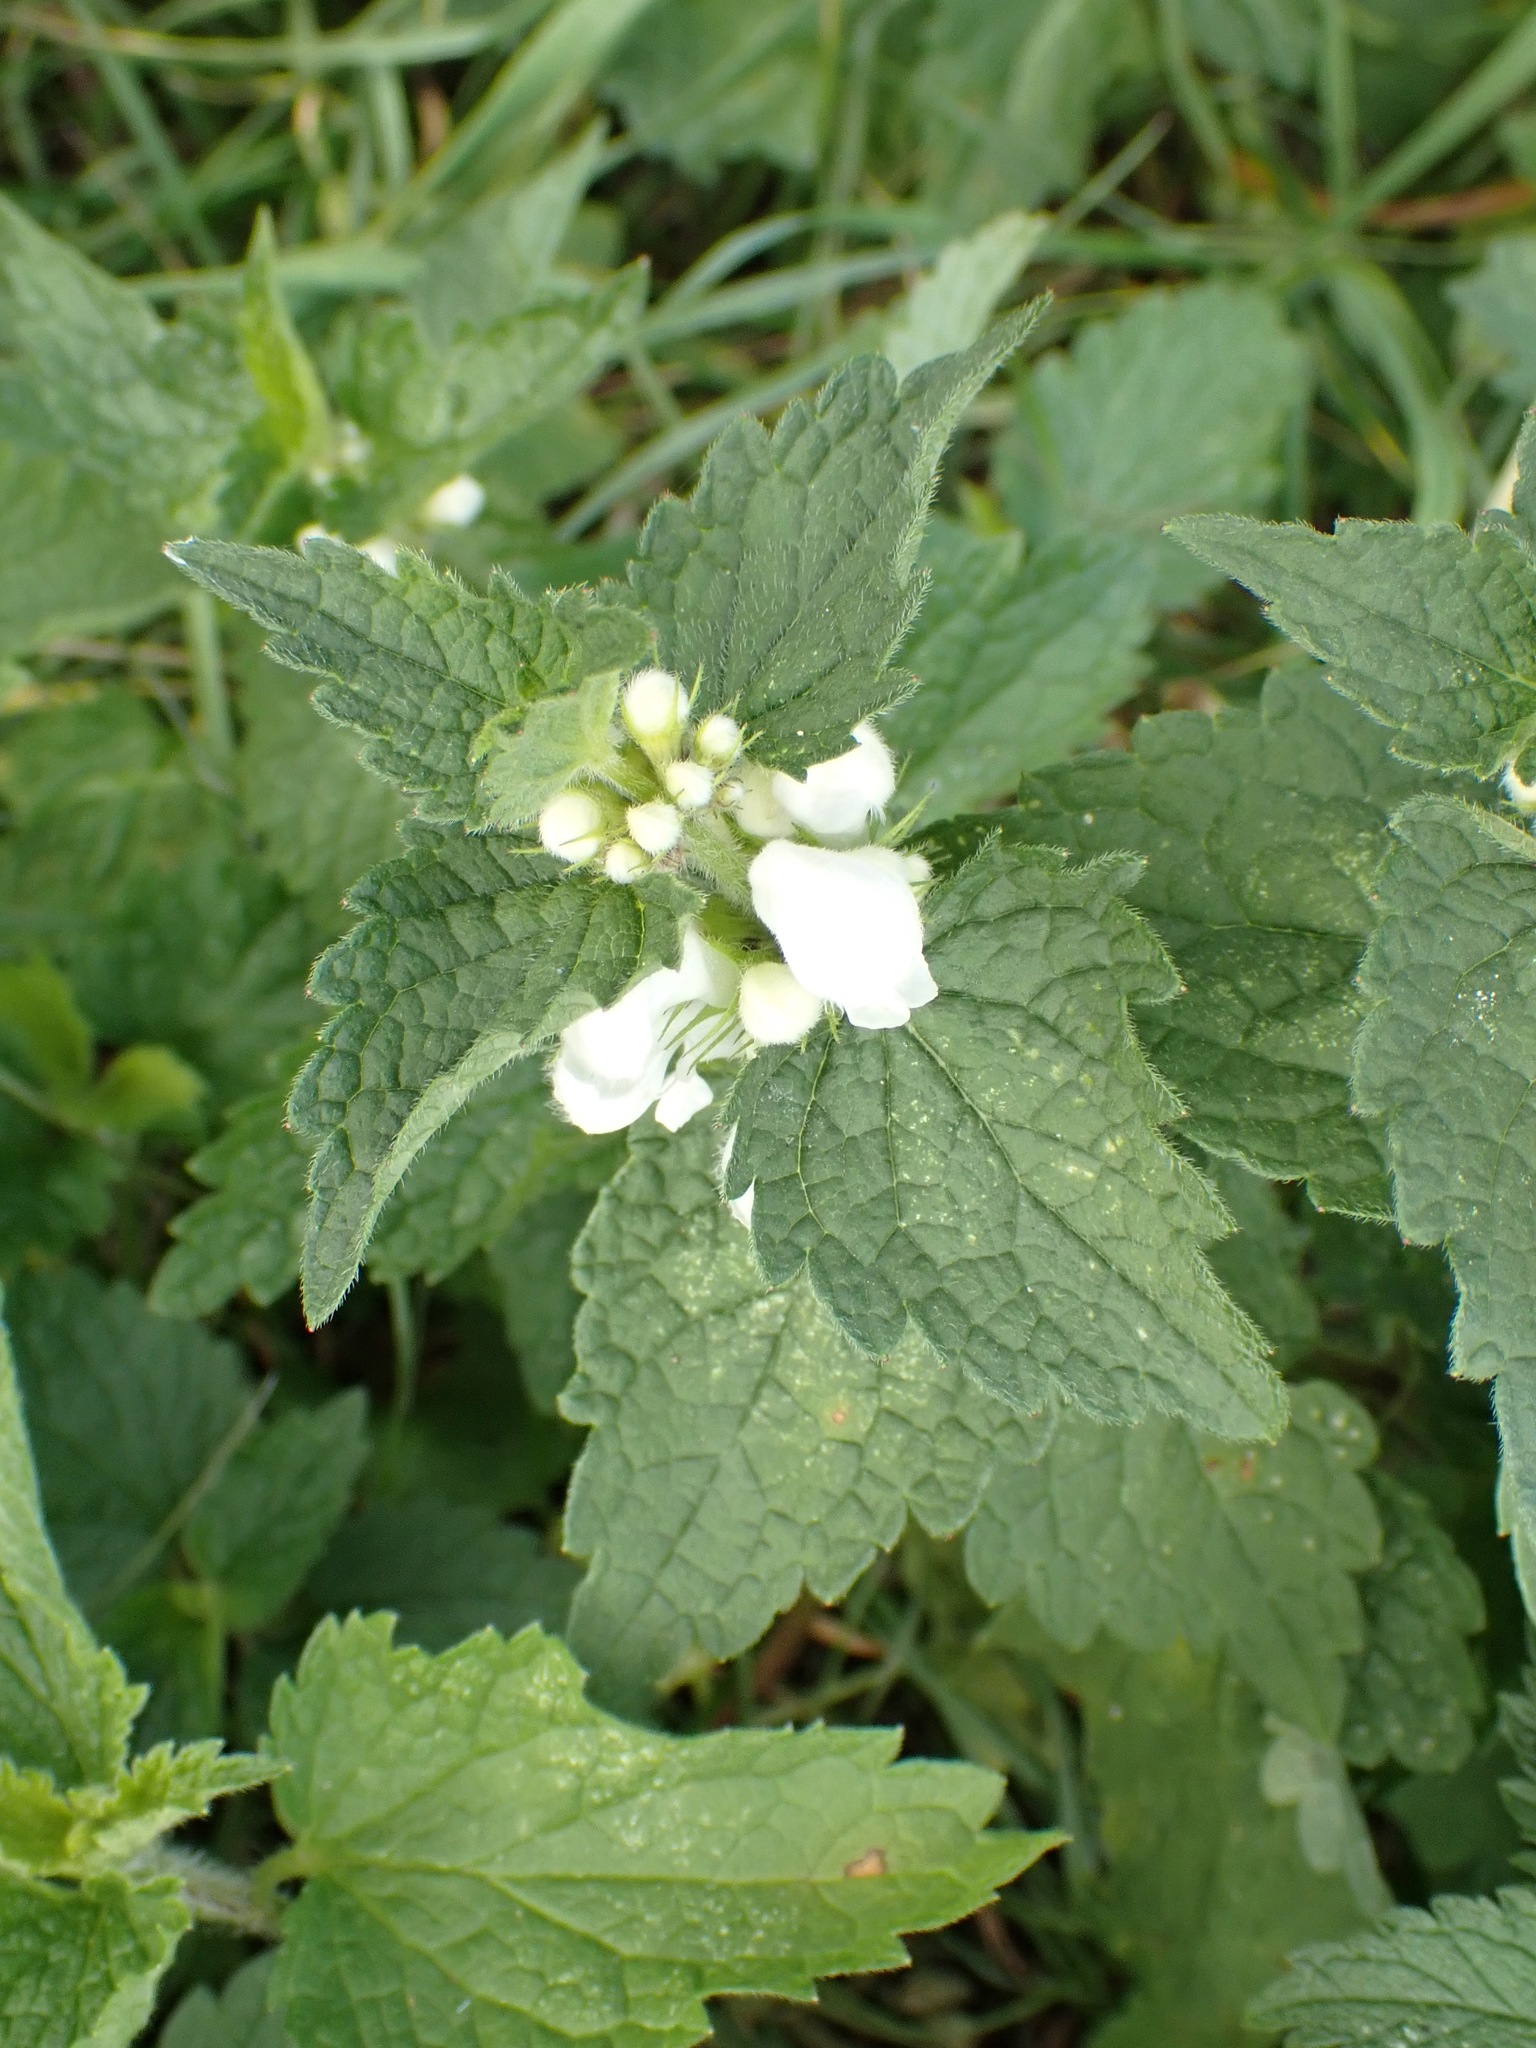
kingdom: Plantae
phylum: Tracheophyta
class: Magnoliopsida
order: Lamiales
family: Lamiaceae
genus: Lamium
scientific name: Lamium album
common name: White dead-nettle
